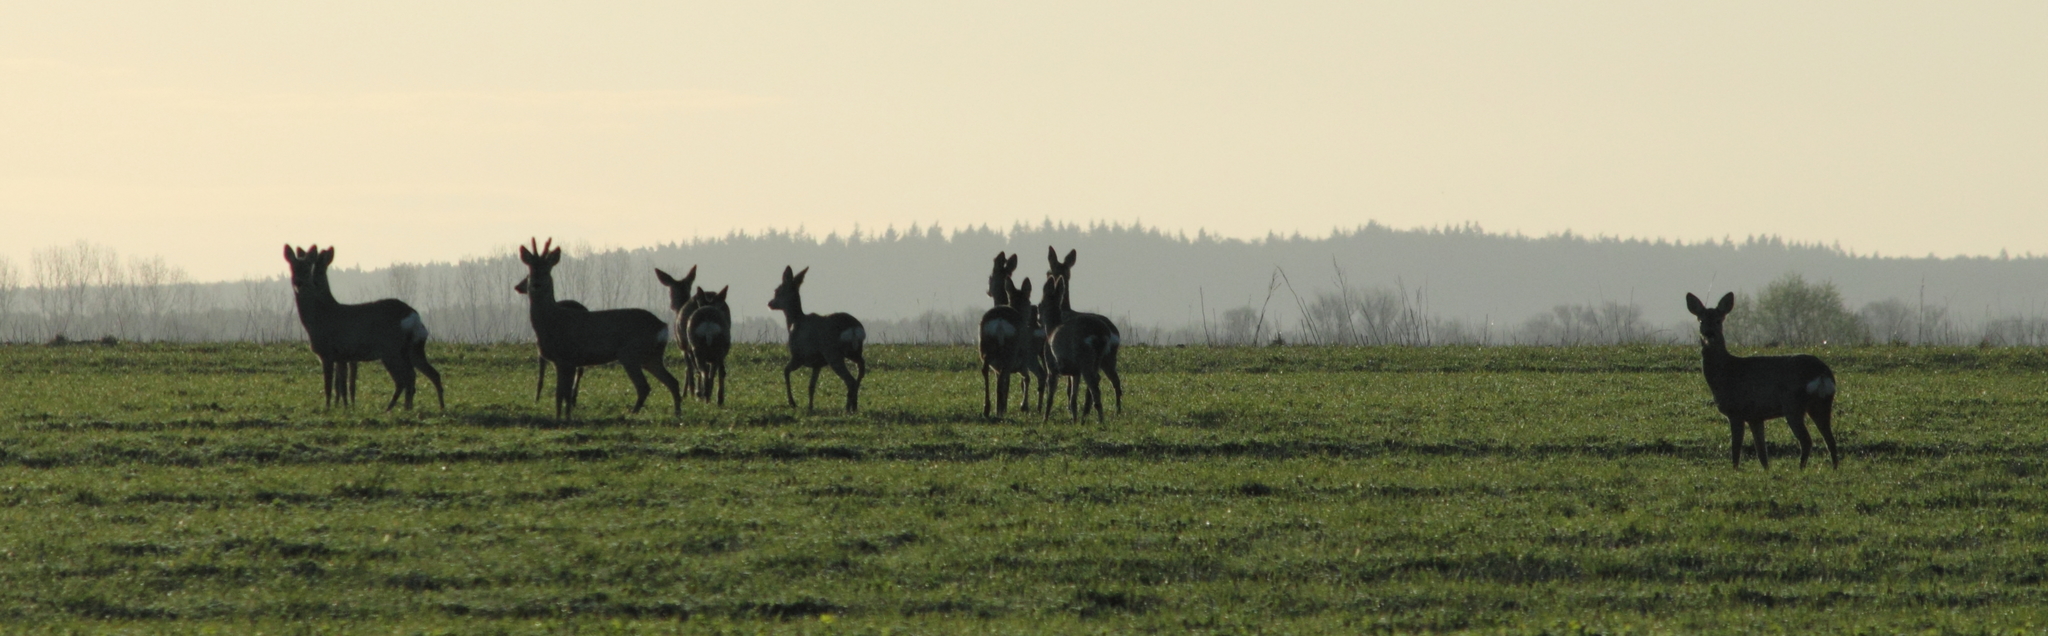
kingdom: Animalia
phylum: Chordata
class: Mammalia
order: Artiodactyla
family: Cervidae
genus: Capreolus
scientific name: Capreolus capreolus
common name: Western roe deer
